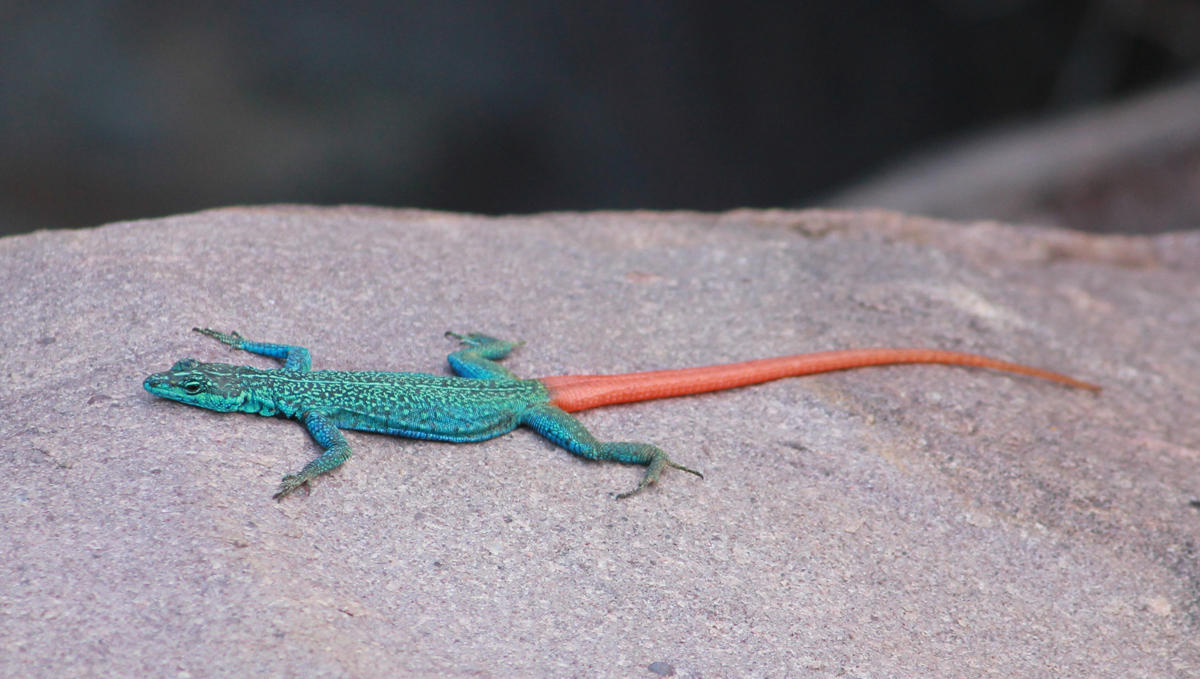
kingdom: Animalia
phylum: Chordata
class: Squamata
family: Cordylidae
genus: Platysaurus
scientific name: Platysaurus relictus
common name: Soutpansberg flat lizard
